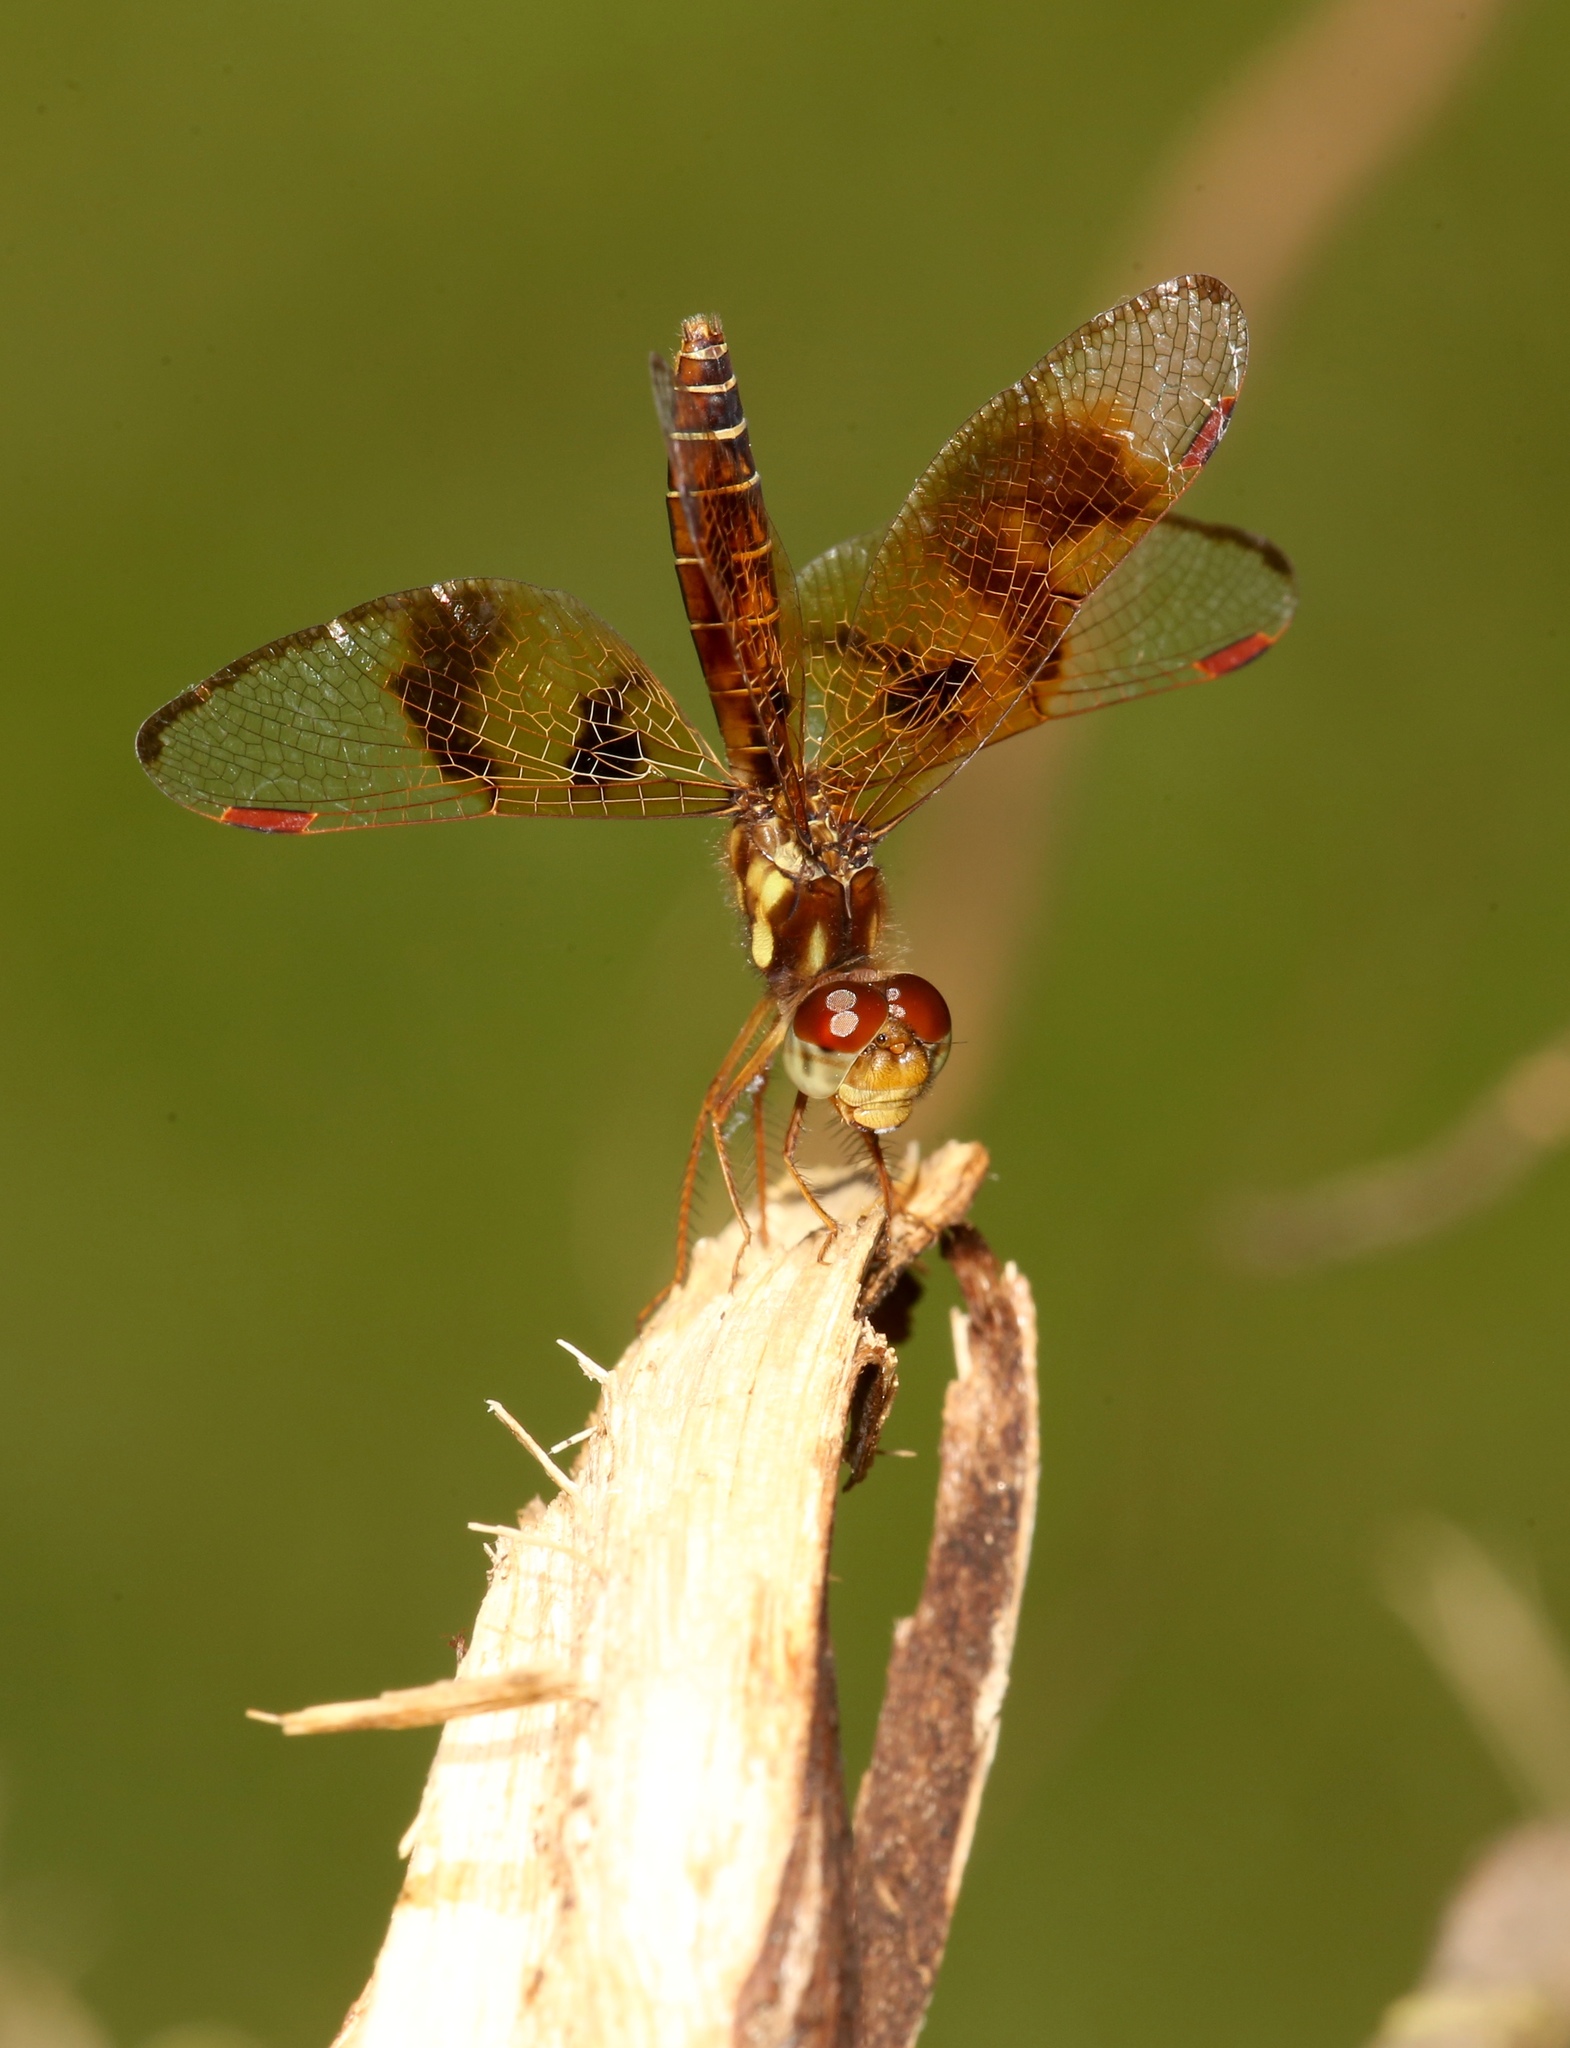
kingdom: Animalia
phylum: Arthropoda
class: Insecta
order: Odonata
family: Libellulidae
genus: Perithemis
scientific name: Perithemis tenera
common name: Eastern amberwing
